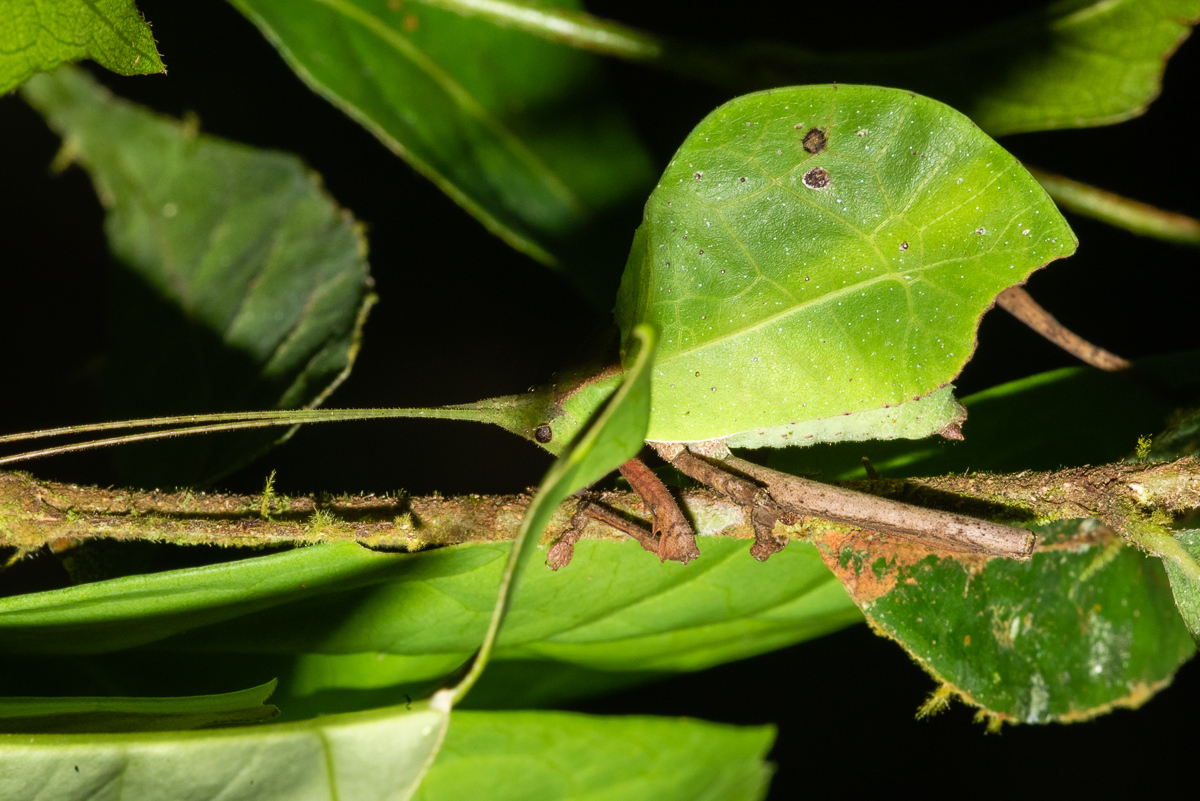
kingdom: Animalia
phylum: Arthropoda
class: Insecta
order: Orthoptera
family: Tettigoniidae
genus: Typophyllum
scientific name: Typophyllum mortuifolium
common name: Common little walking leaf
